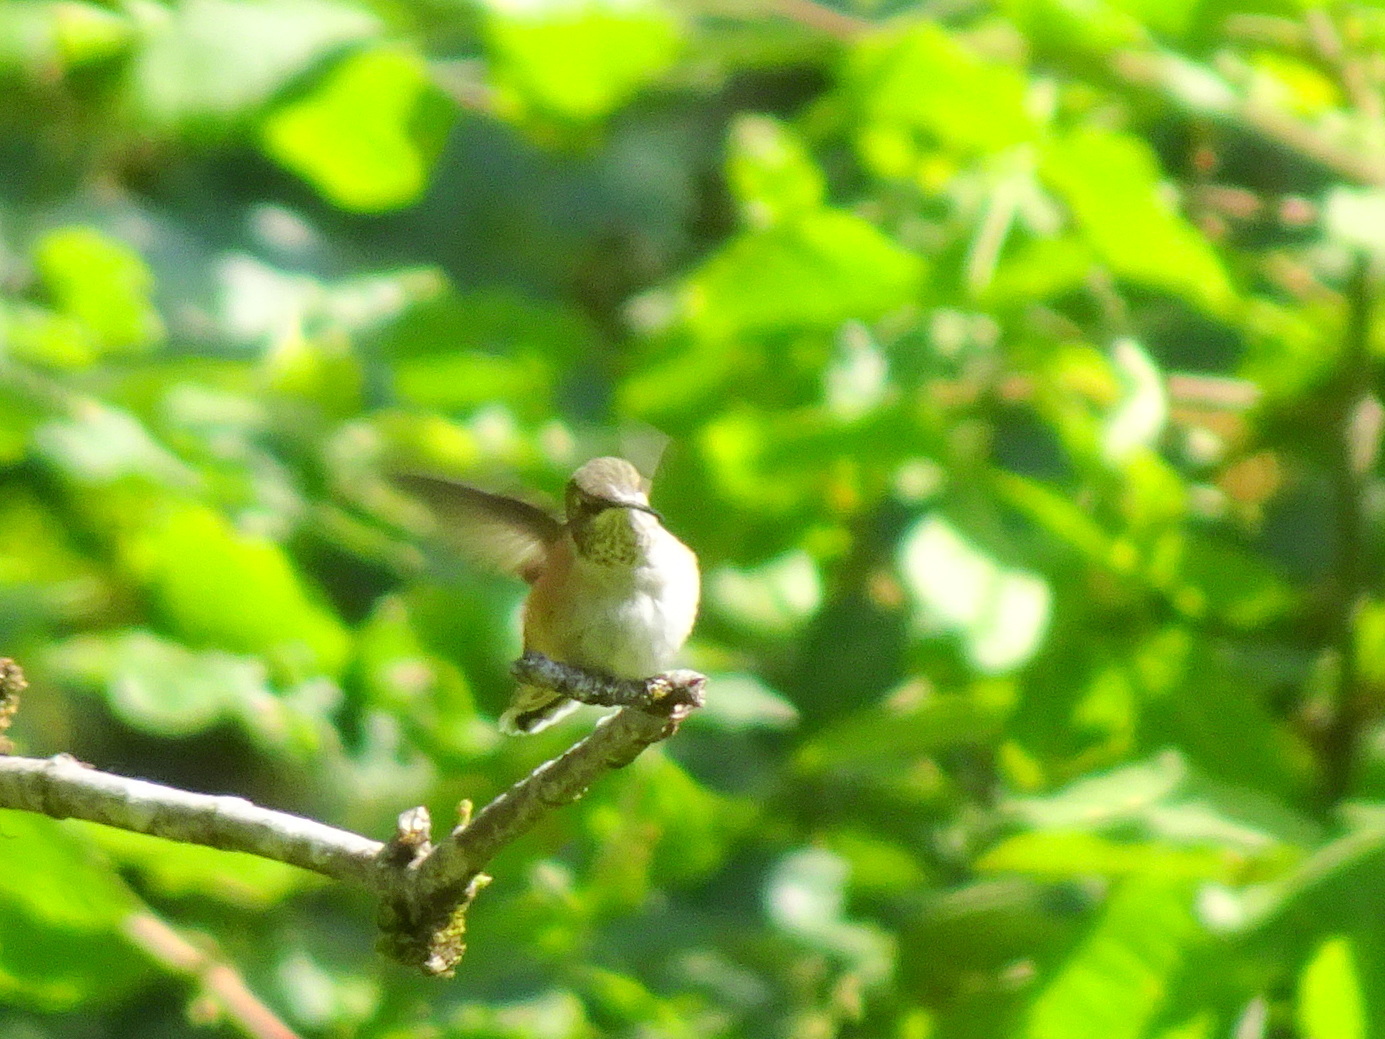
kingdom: Animalia
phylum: Chordata
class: Aves
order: Apodiformes
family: Trochilidae
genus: Selasphorus
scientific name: Selasphorus rufus
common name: Rufous hummingbird
